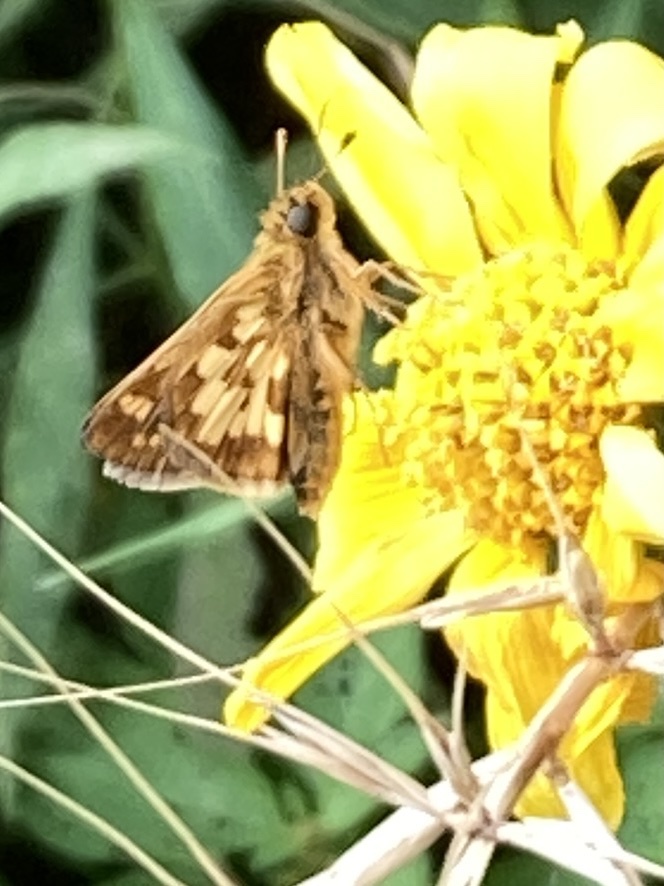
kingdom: Animalia
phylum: Arthropoda
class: Insecta
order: Lepidoptera
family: Hesperiidae
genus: Polites
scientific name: Polites coras
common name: Peck's skipper
